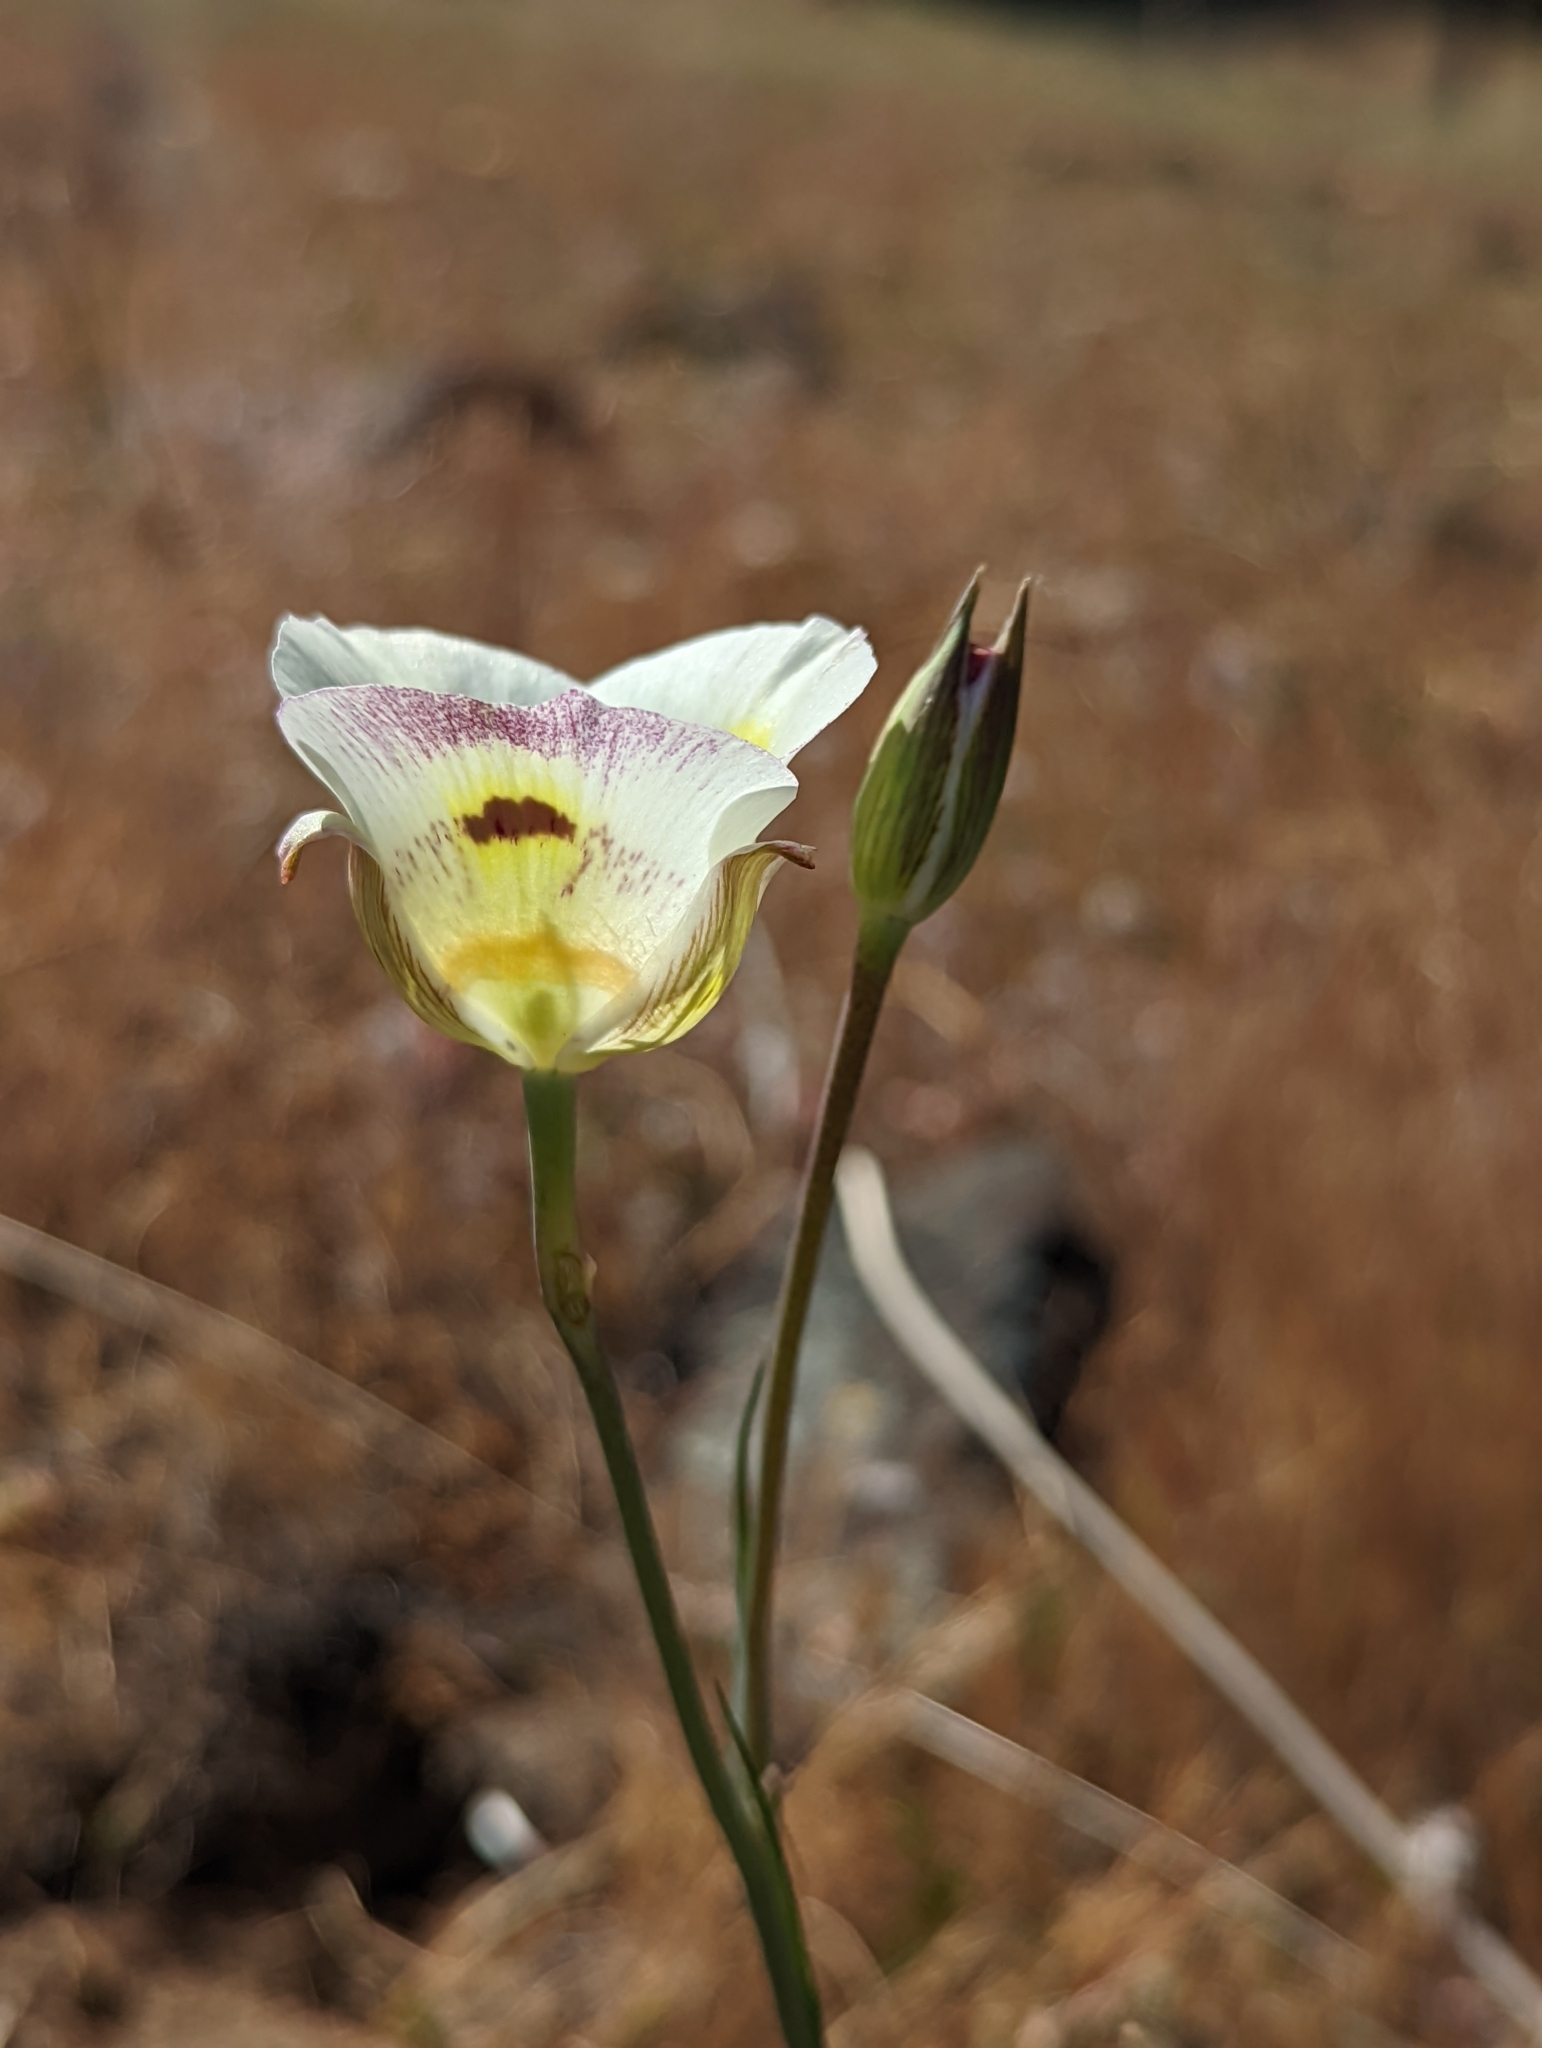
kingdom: Plantae
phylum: Tracheophyta
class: Liliopsida
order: Liliales
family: Liliaceae
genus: Calochortus
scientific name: Calochortus superbus
